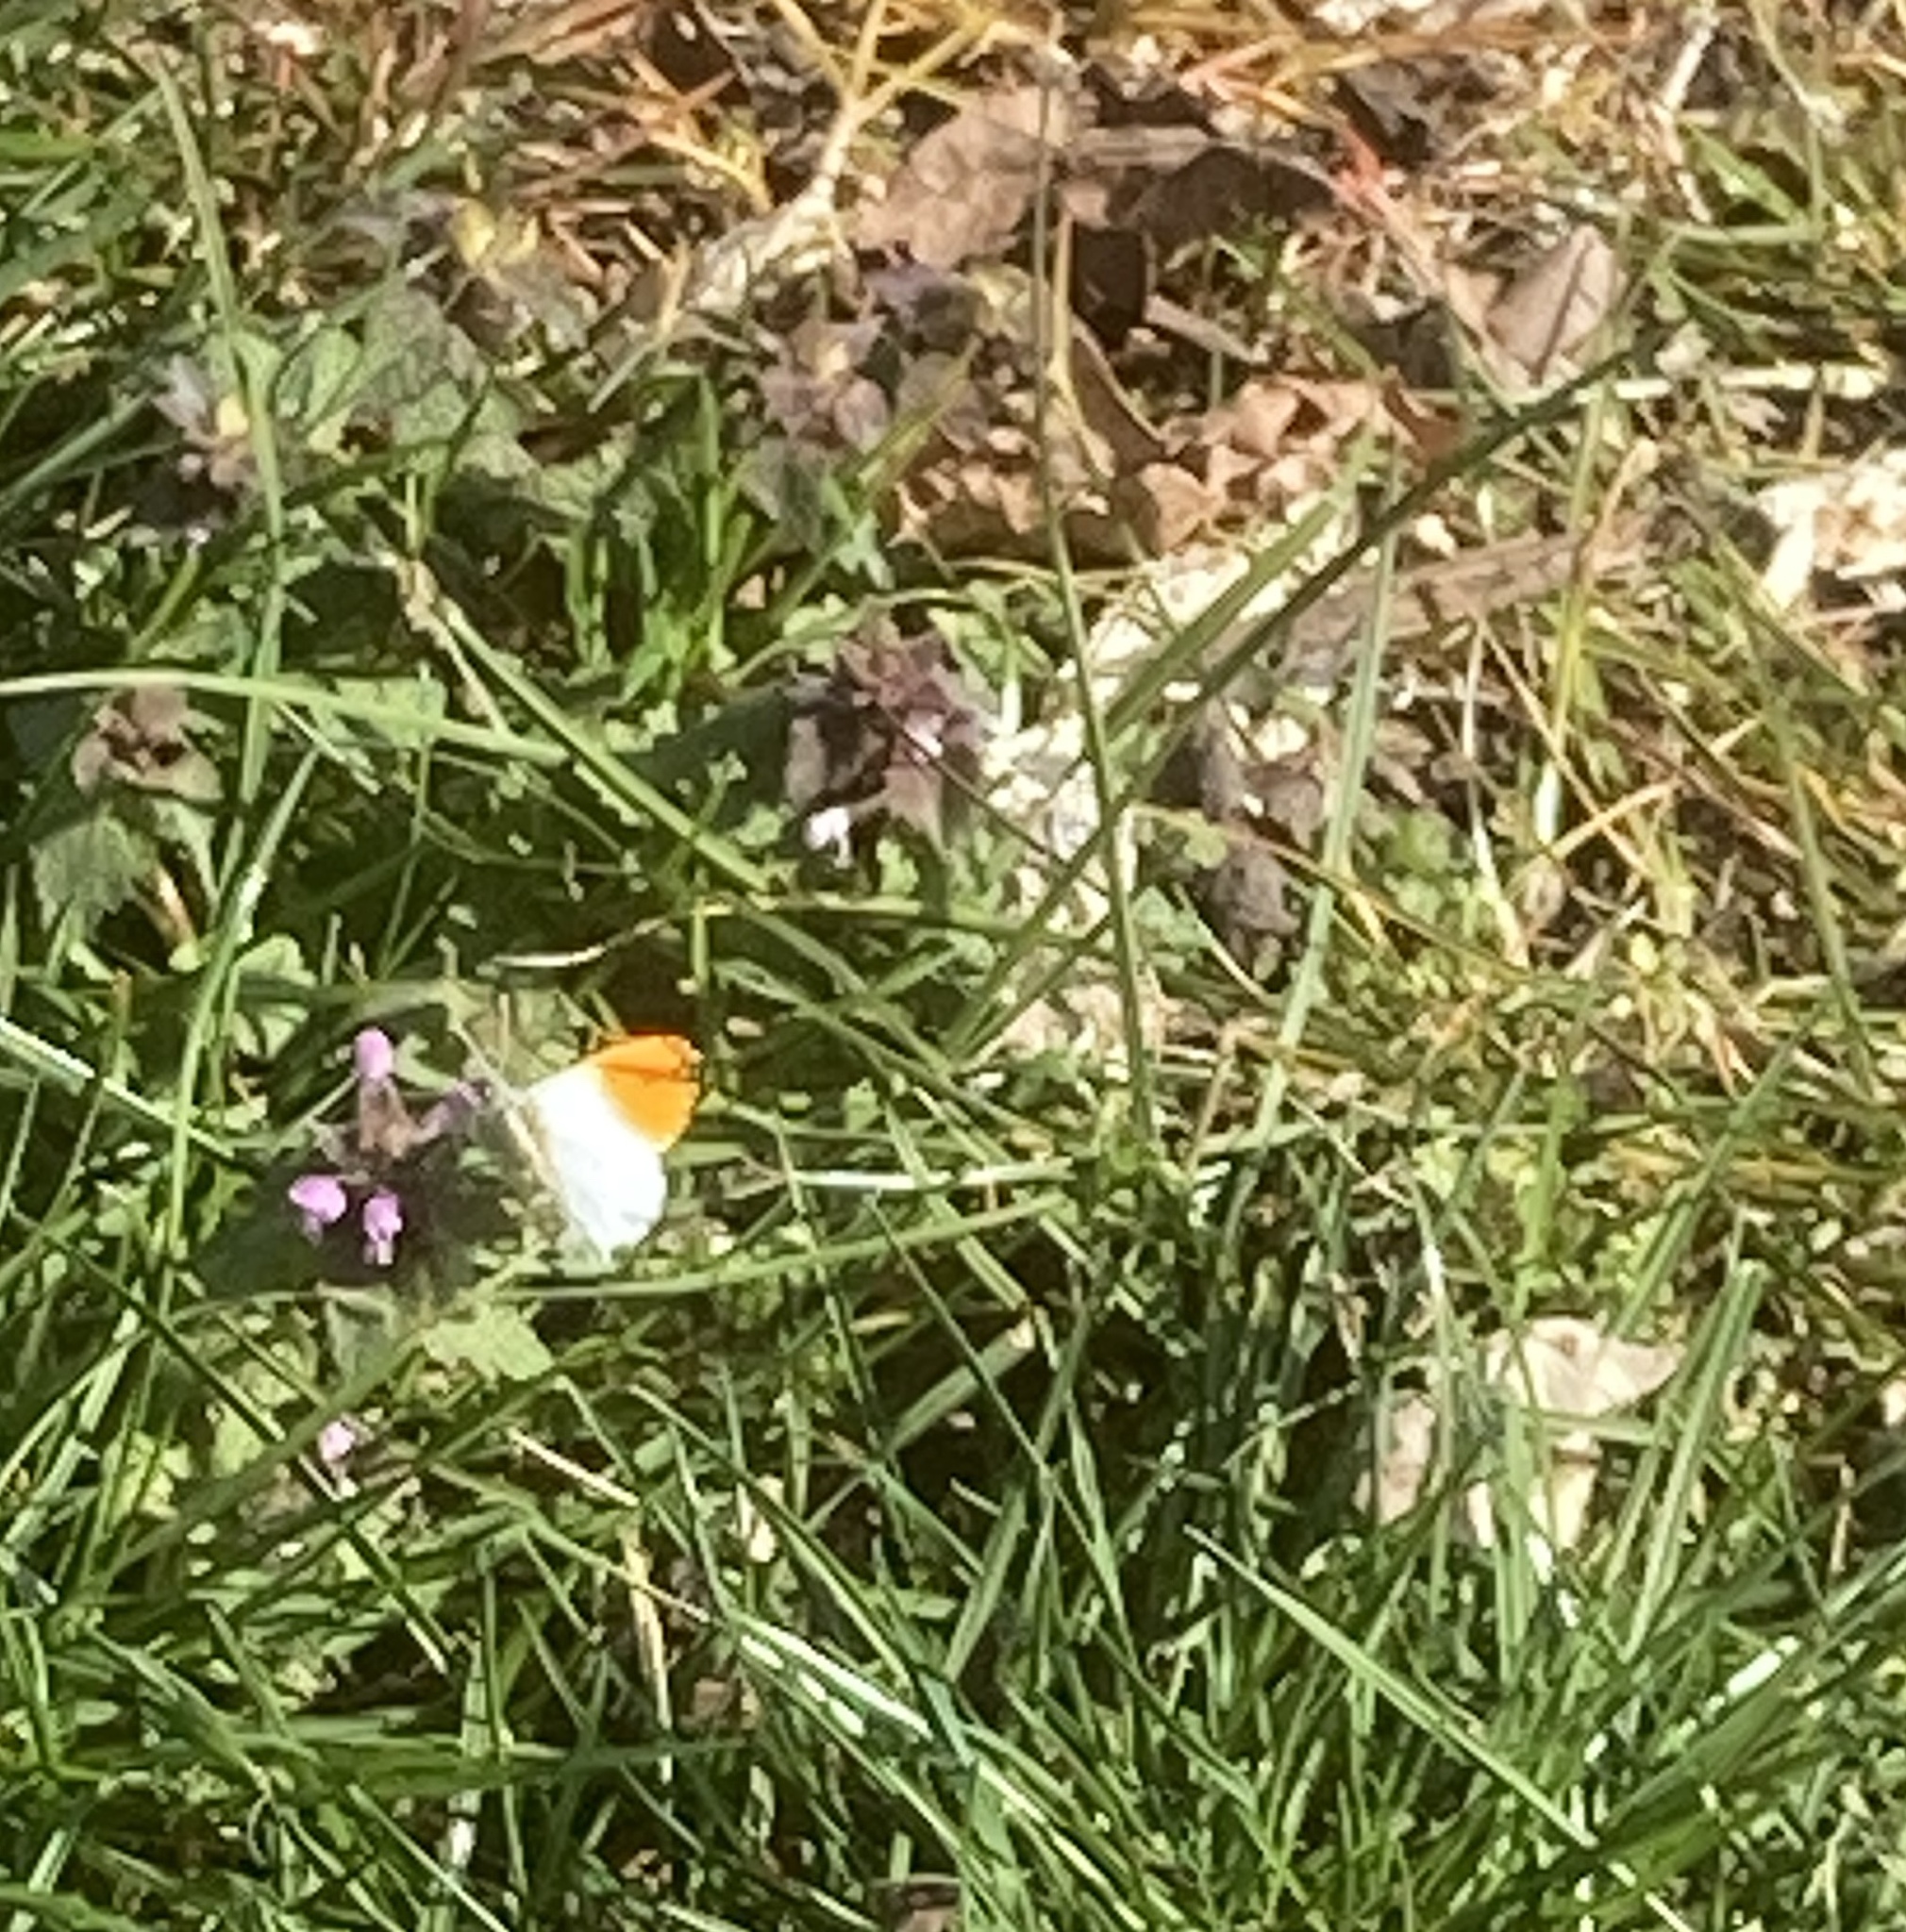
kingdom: Animalia
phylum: Arthropoda
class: Insecta
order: Lepidoptera
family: Pieridae
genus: Anthocharis
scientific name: Anthocharis cardamines
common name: Orange-tip
